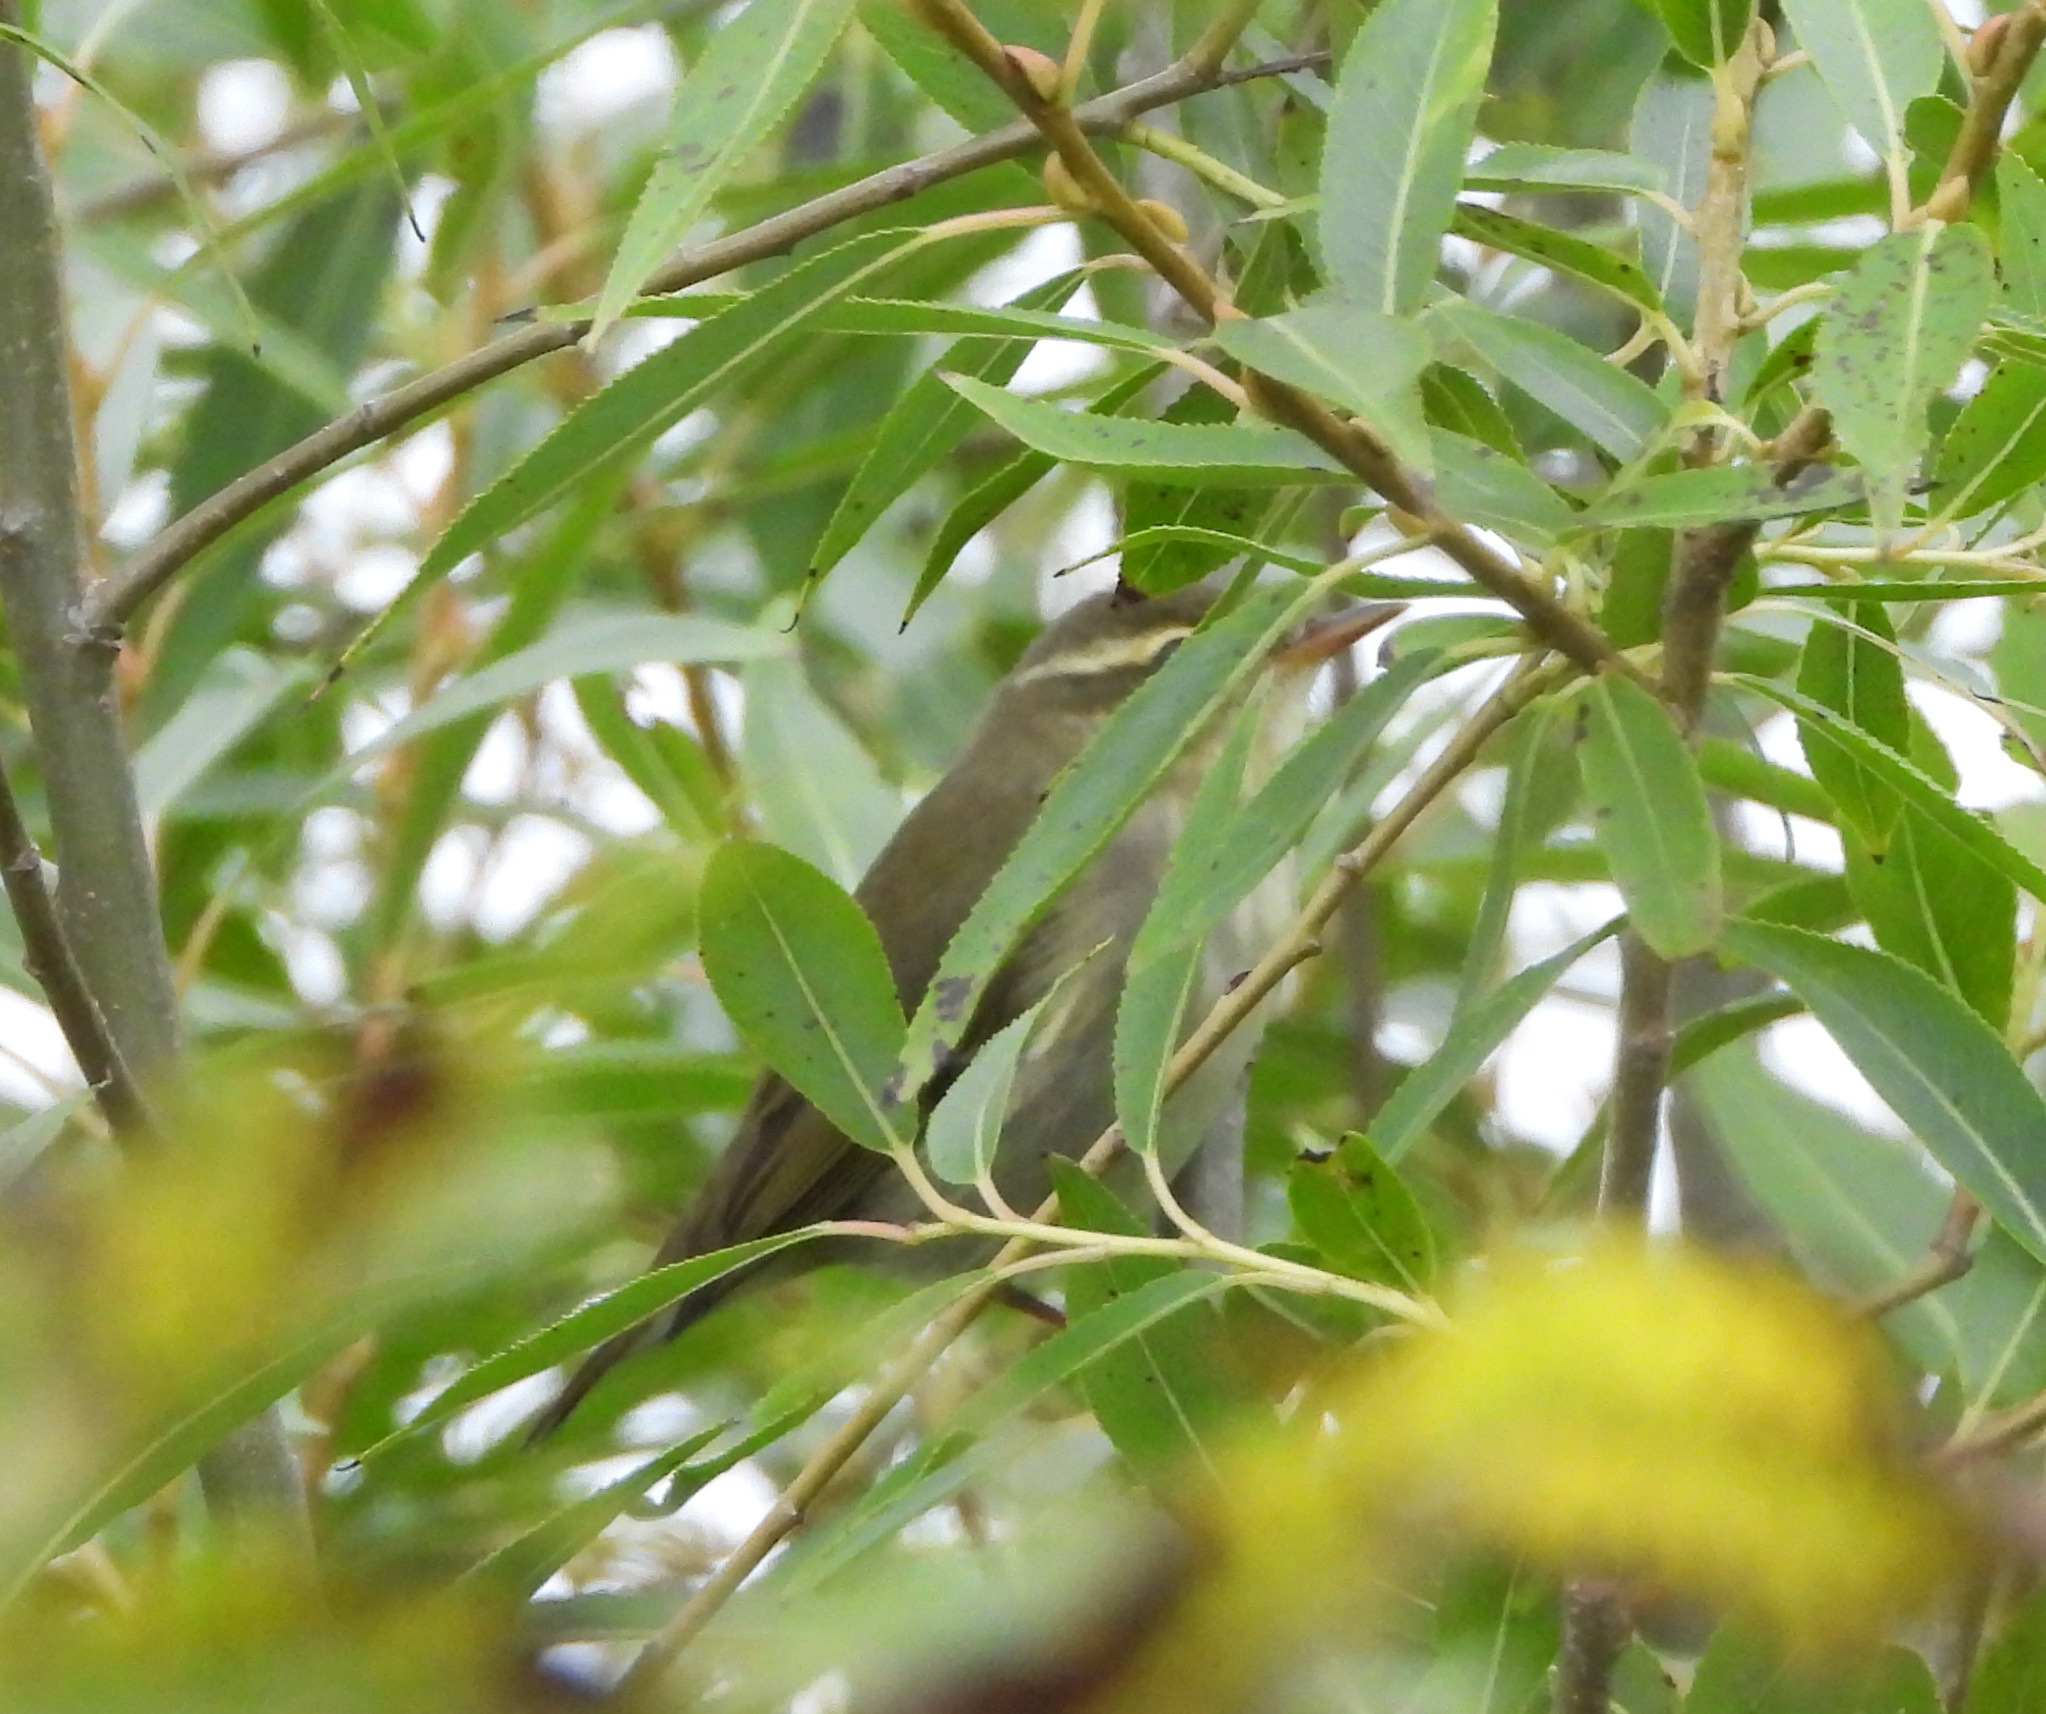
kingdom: Animalia
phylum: Chordata
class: Aves
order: Passeriformes
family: Phylloscopidae
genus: Phylloscopus
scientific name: Phylloscopus borealis
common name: Arctic warbler
